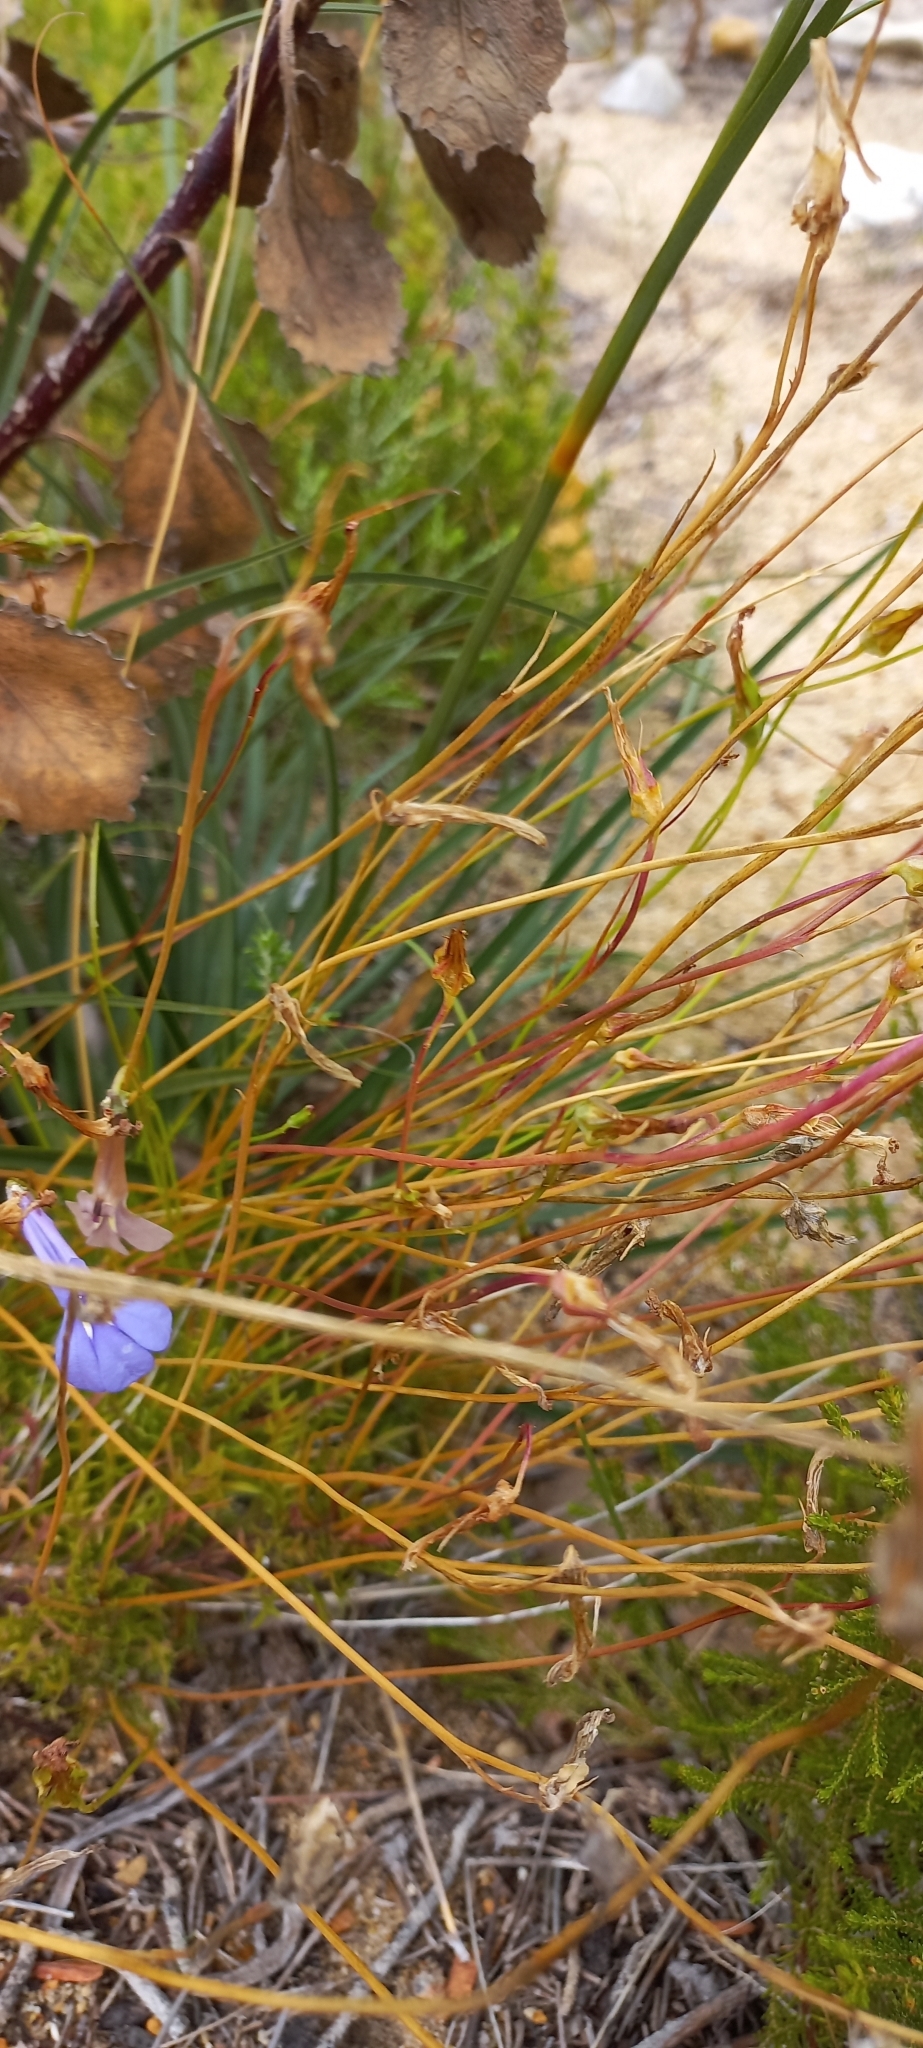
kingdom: Plantae
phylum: Tracheophyta
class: Magnoliopsida
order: Asterales
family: Campanulaceae
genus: Lobelia
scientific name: Lobelia coronopifolia
